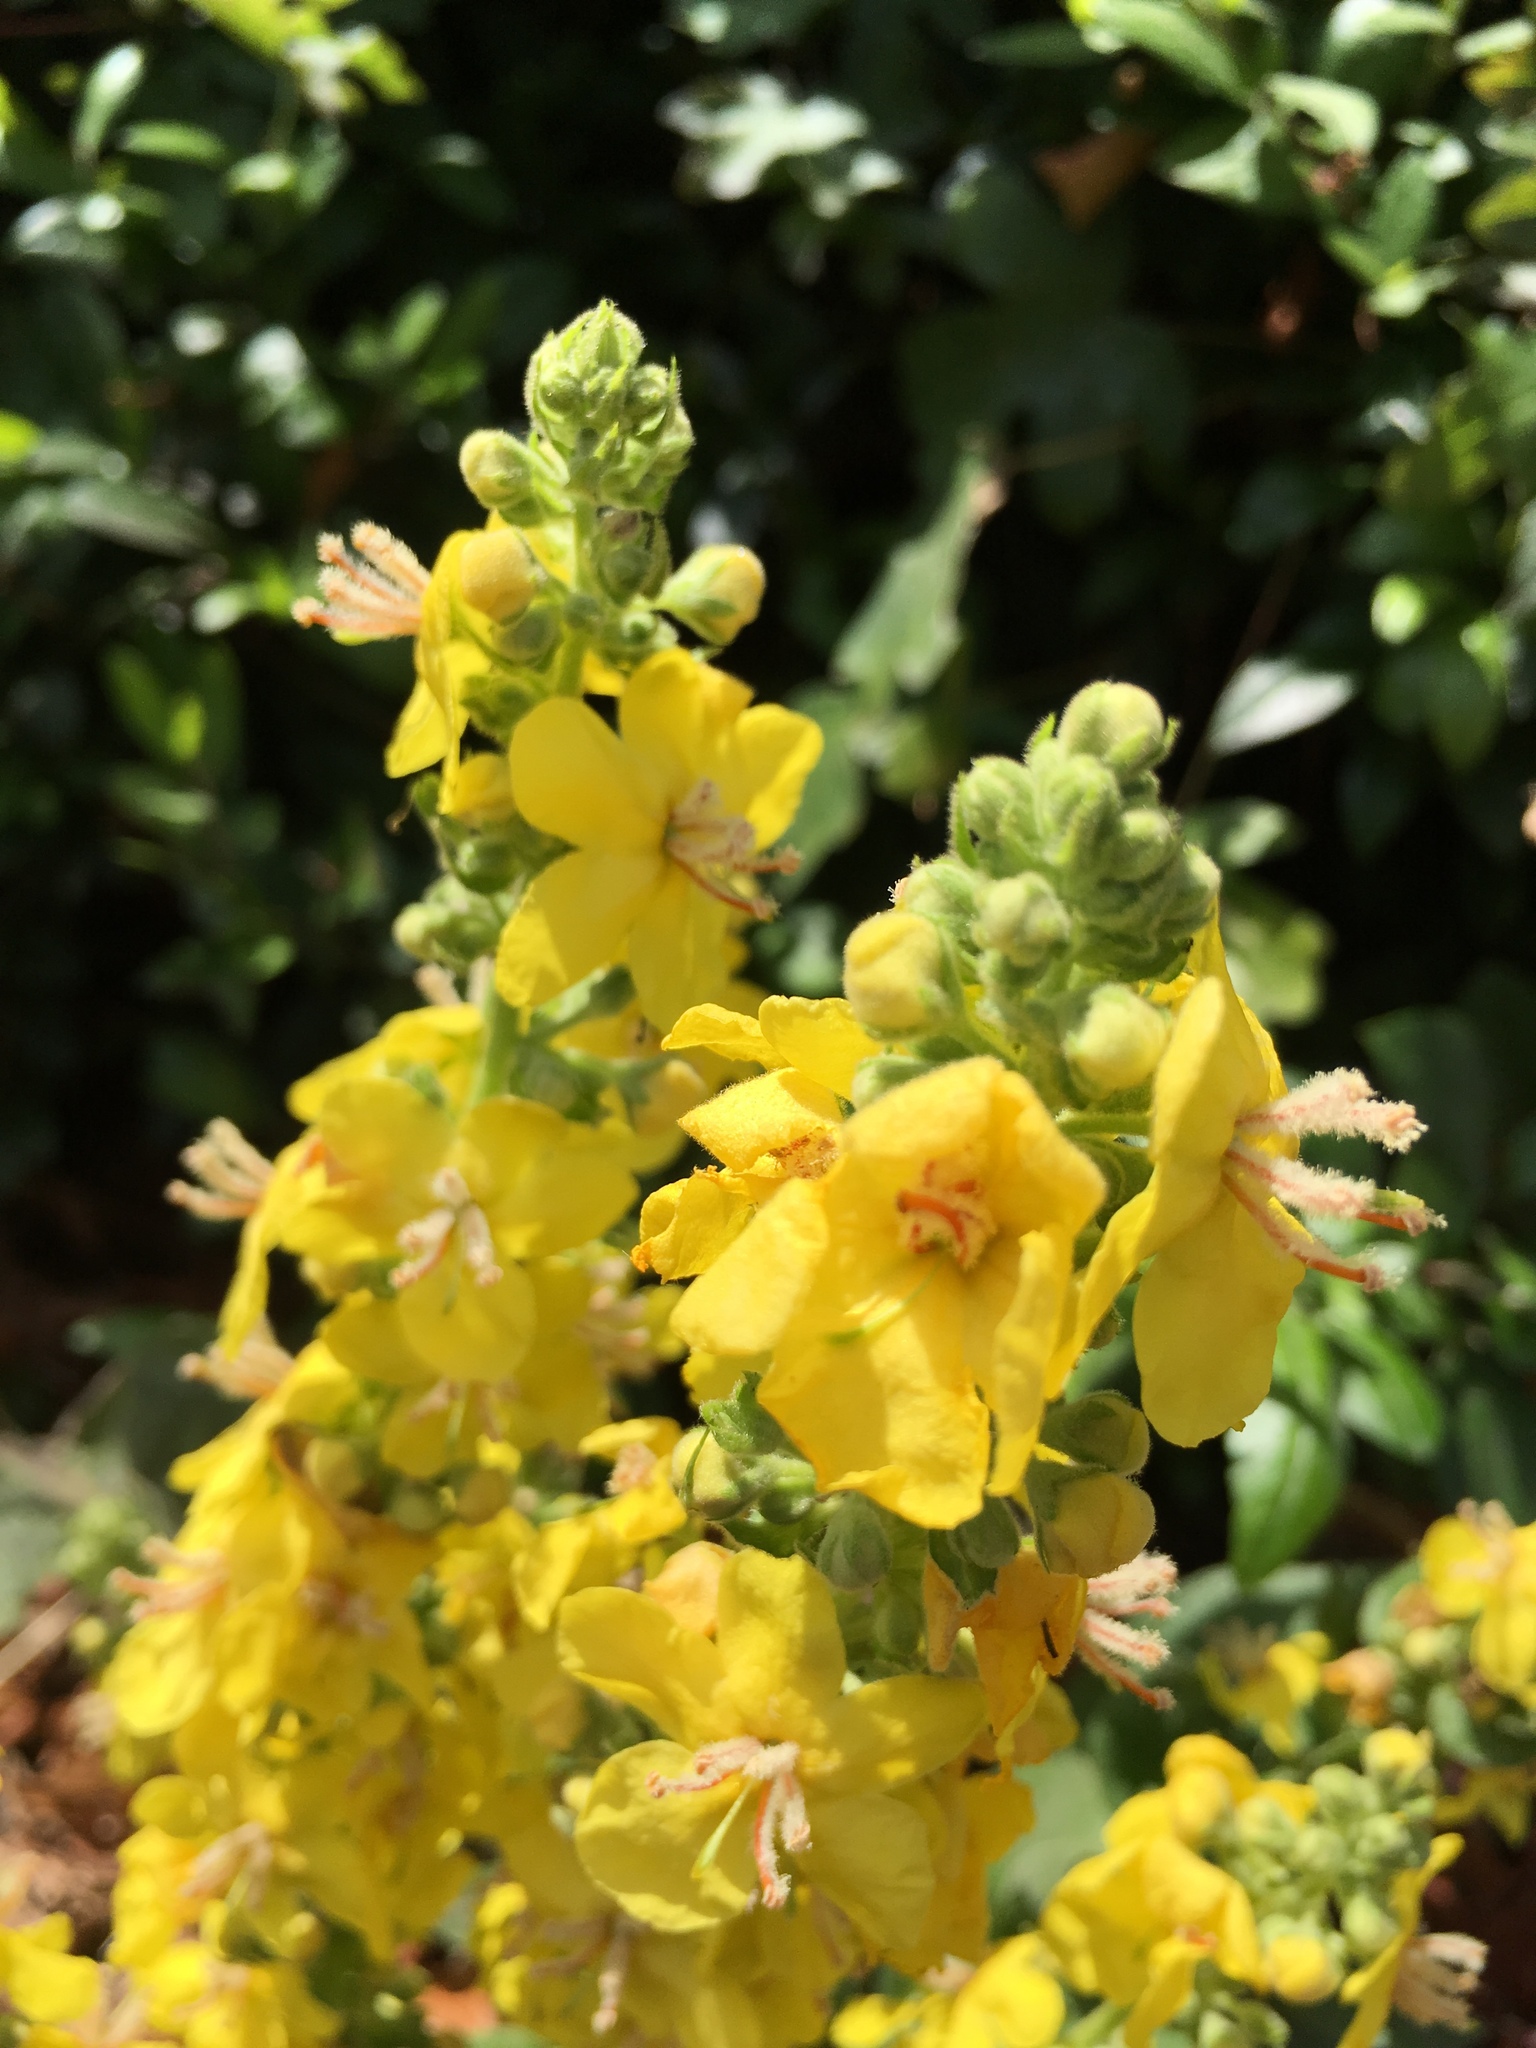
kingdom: Plantae
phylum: Tracheophyta
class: Magnoliopsida
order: Lamiales
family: Scrophulariaceae
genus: Verbascum
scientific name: Verbascum speciosum
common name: Hungarian mullein
